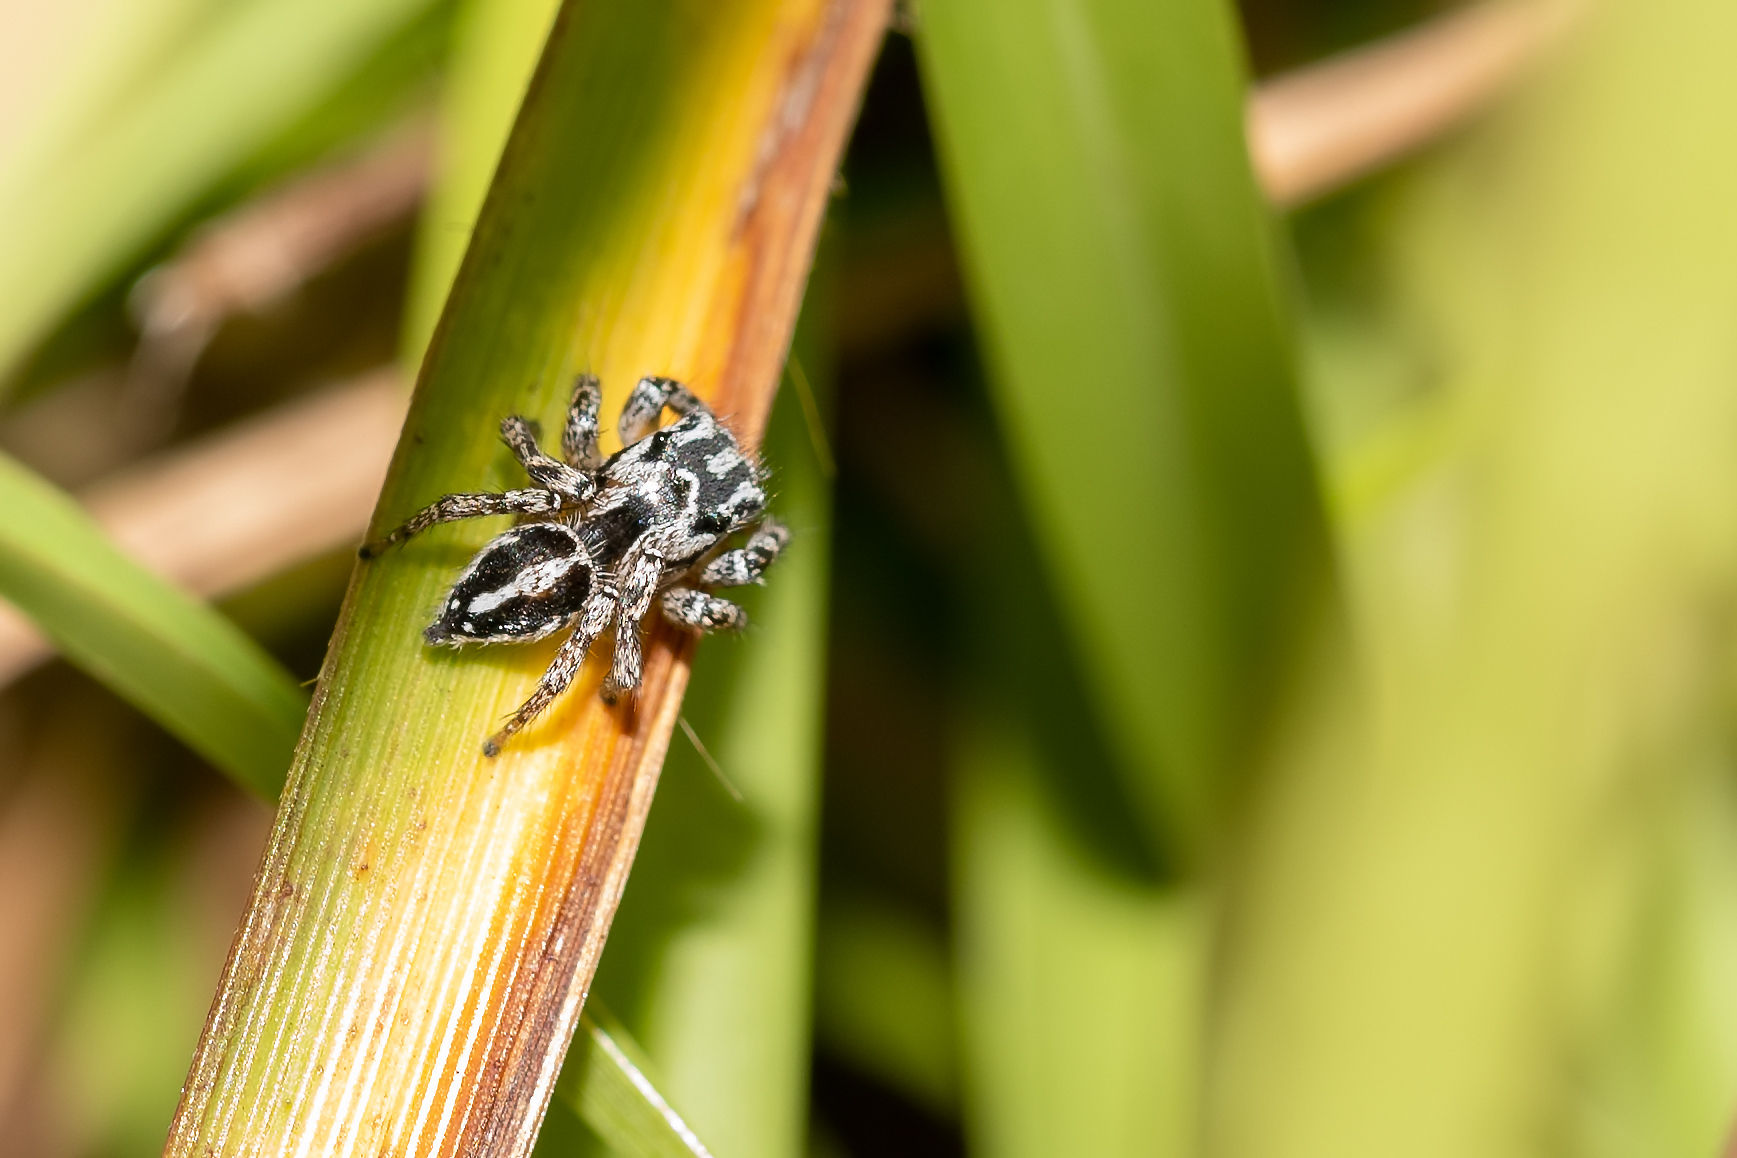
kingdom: Animalia
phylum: Arthropoda
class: Arachnida
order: Araneae
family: Salticidae
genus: Habronattus
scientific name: Habronattus trimaculatus
